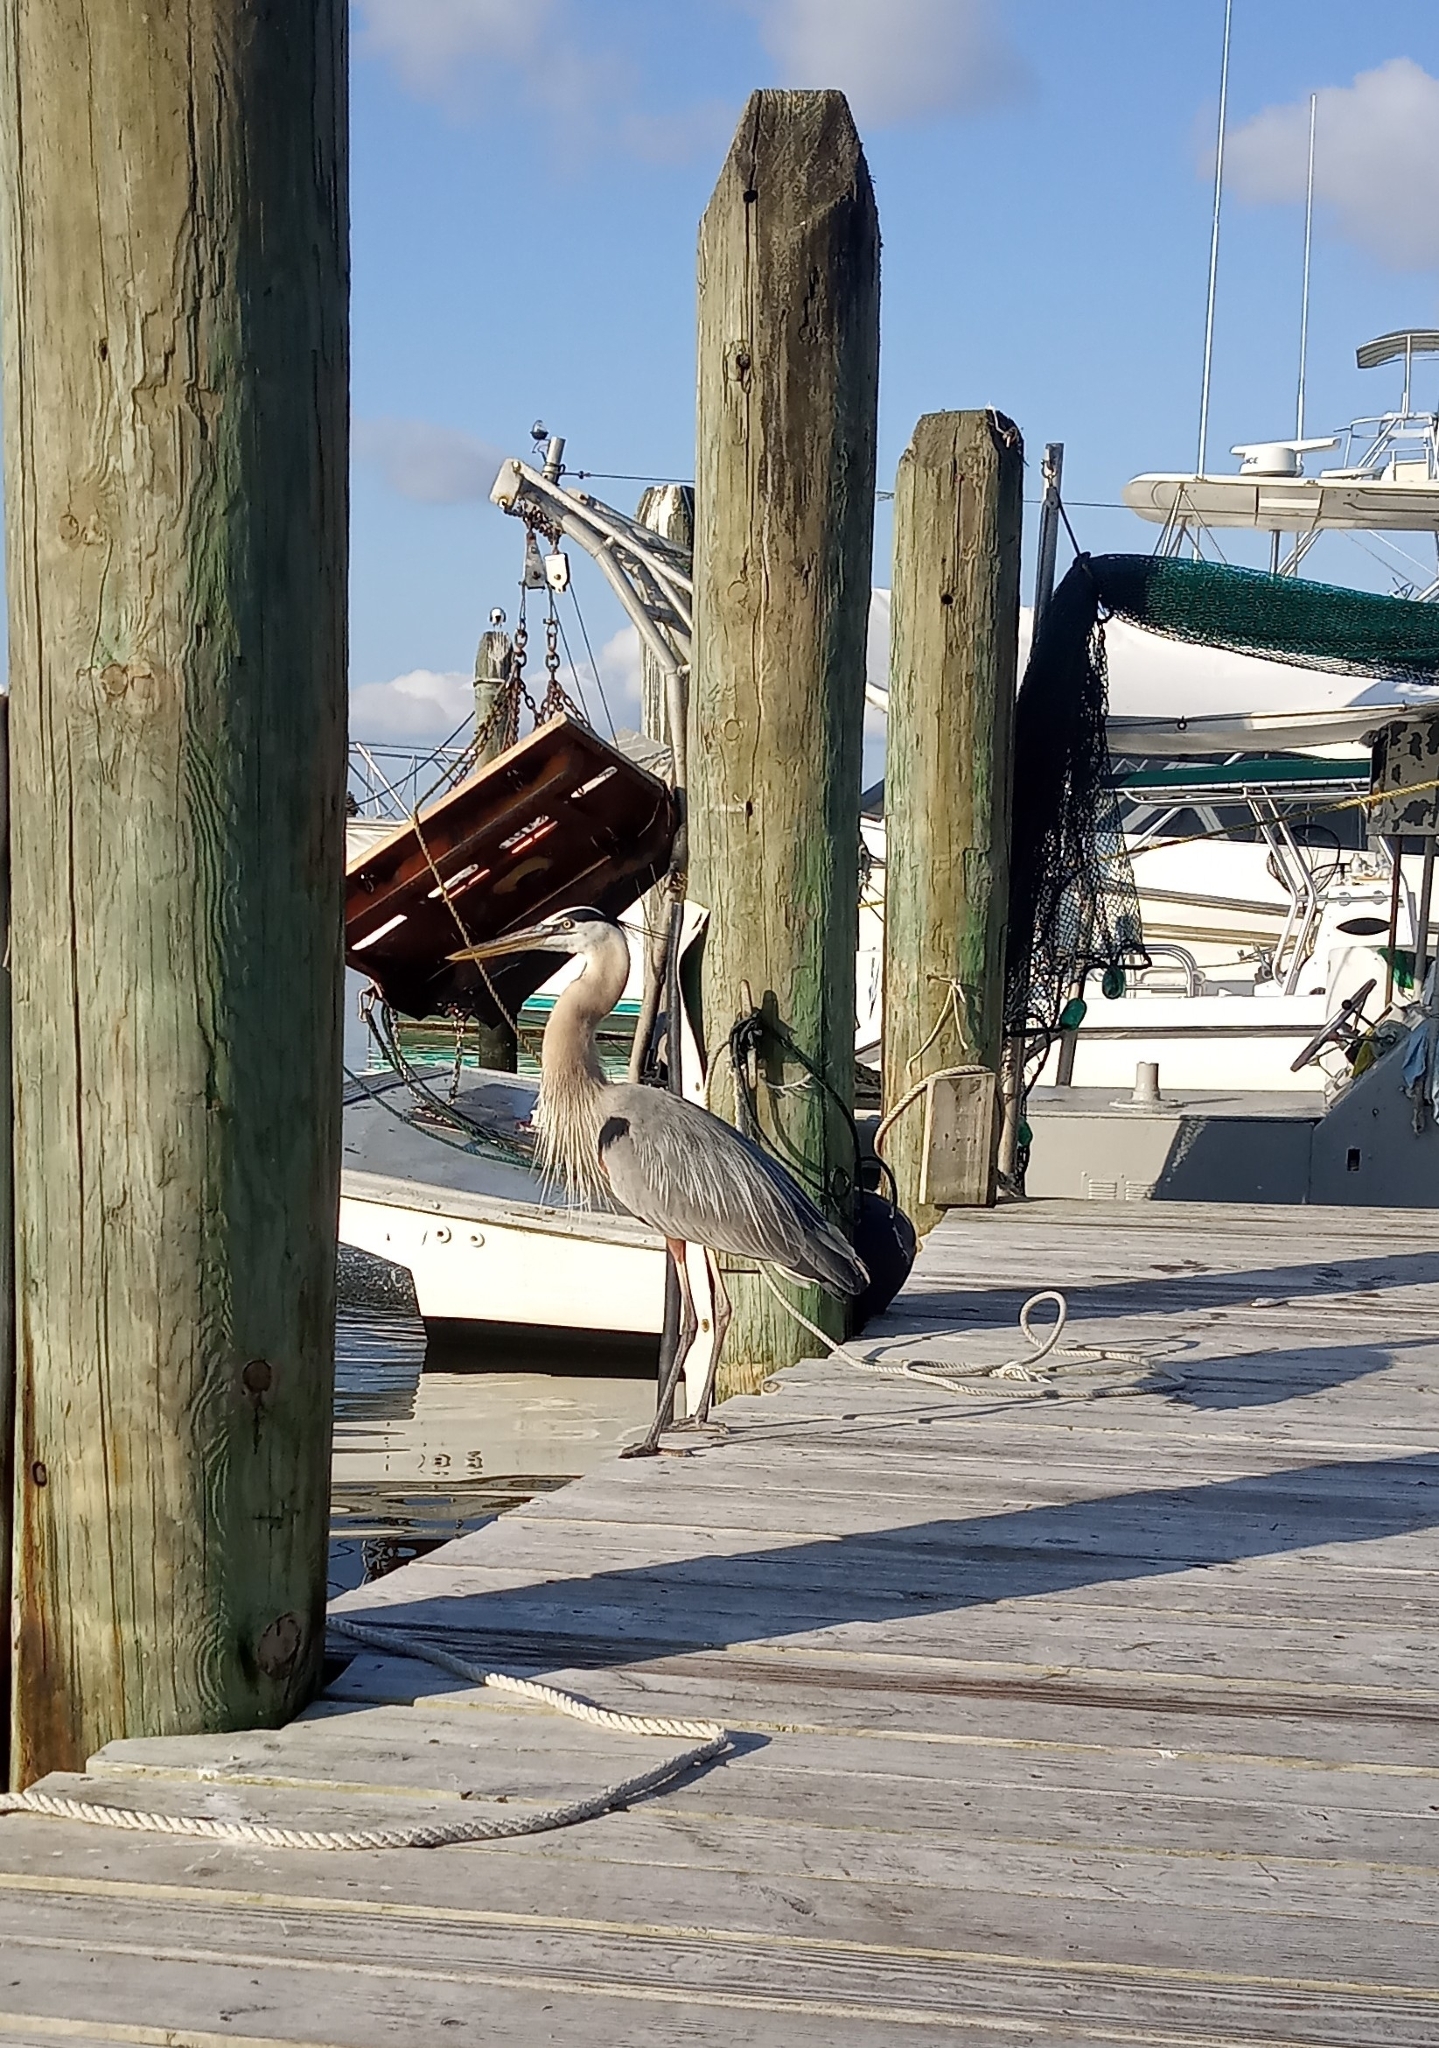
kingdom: Animalia
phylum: Chordata
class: Aves
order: Pelecaniformes
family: Ardeidae
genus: Ardea
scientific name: Ardea herodias
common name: Great blue heron
